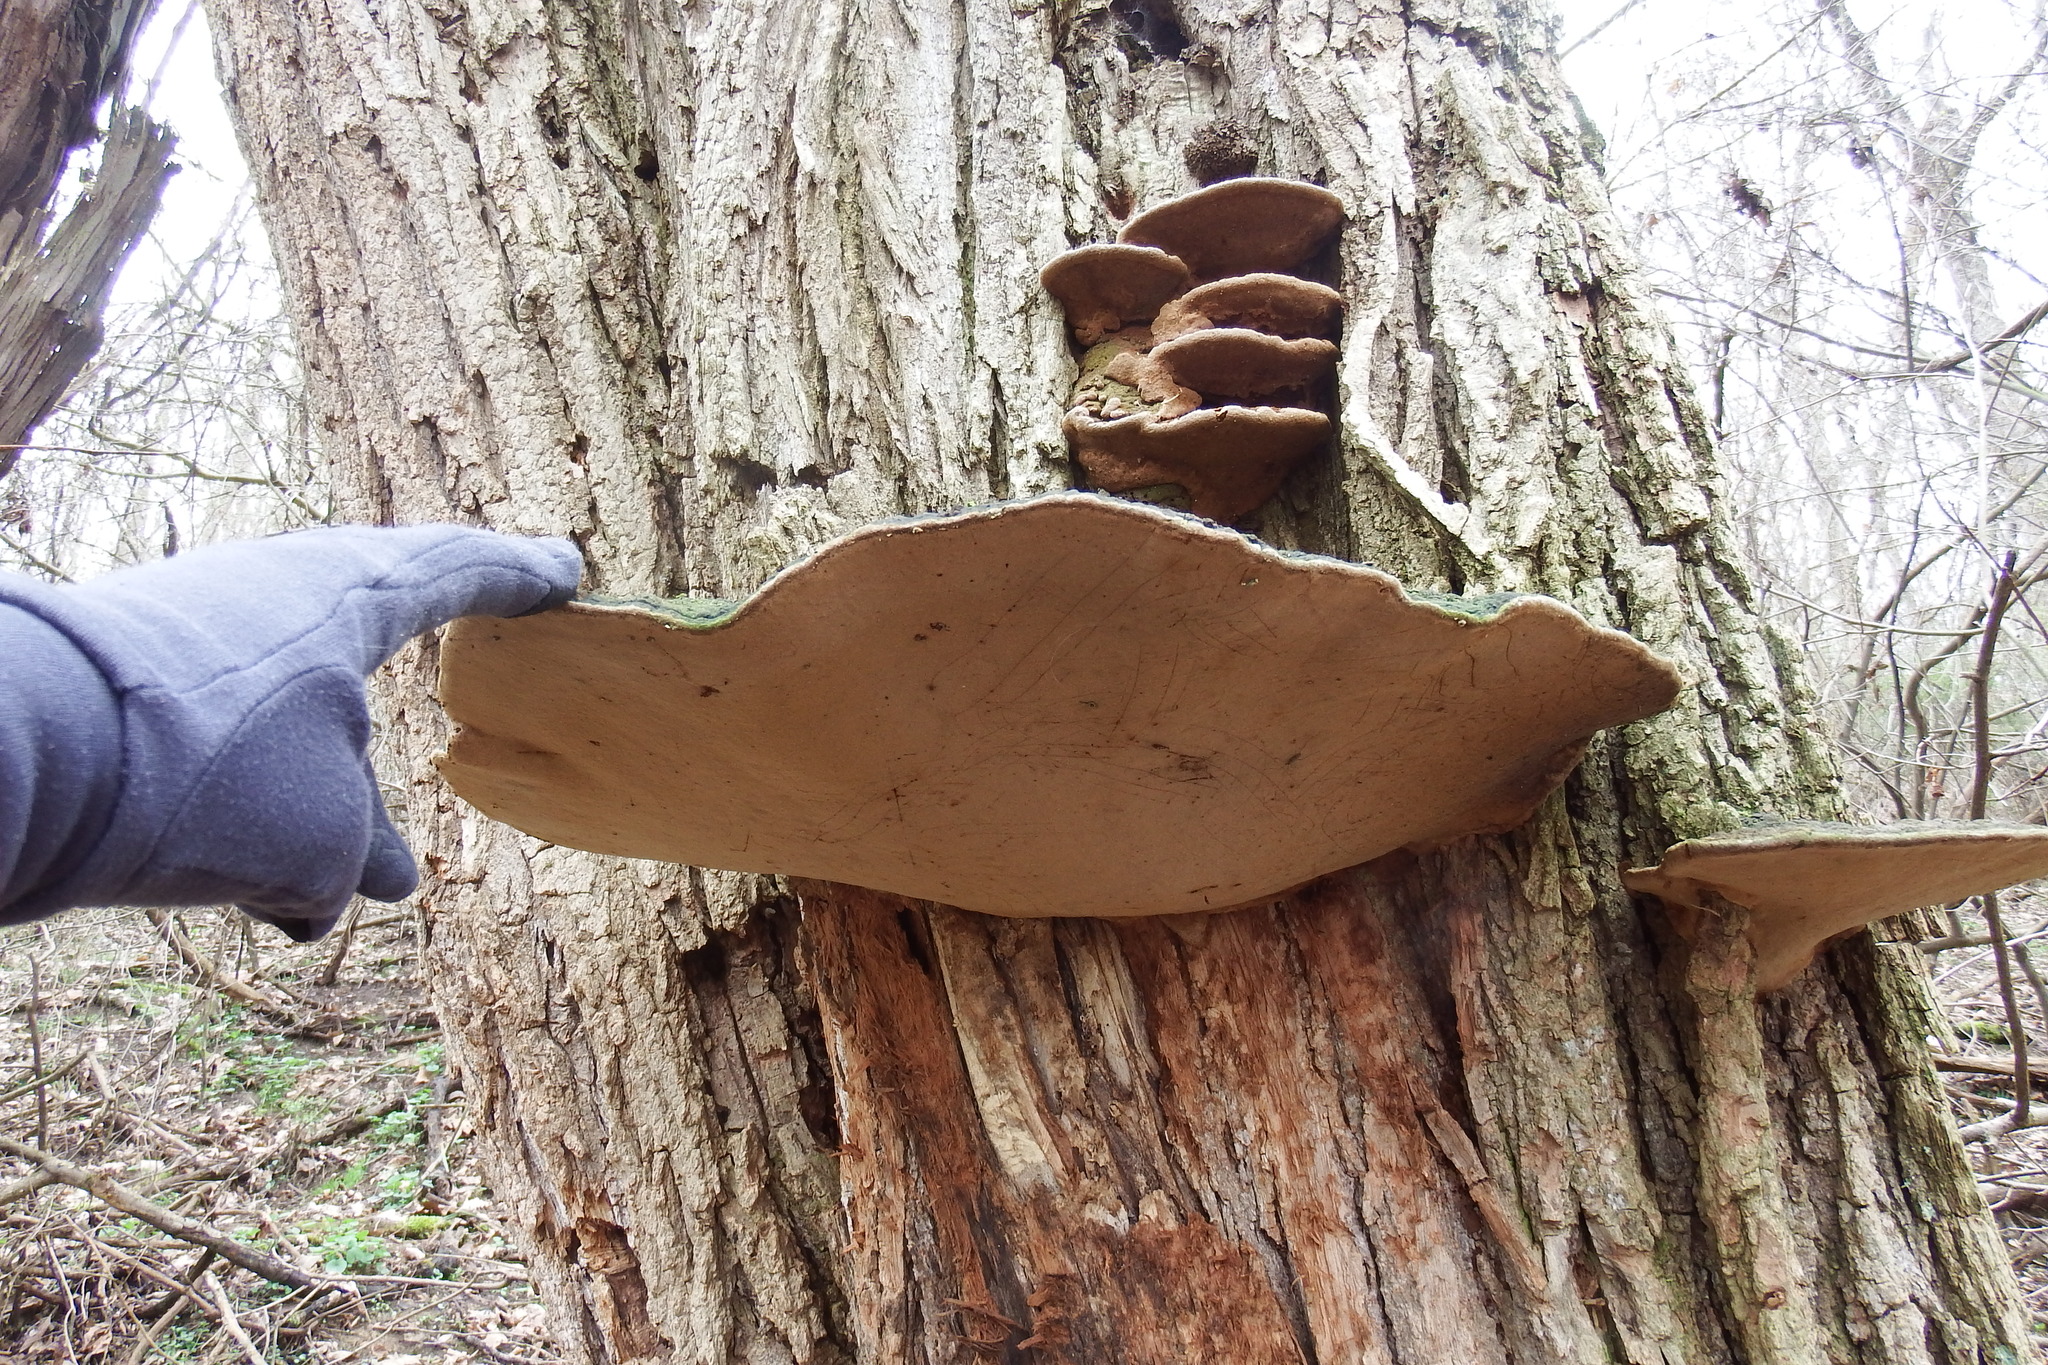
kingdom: Fungi
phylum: Basidiomycota
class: Agaricomycetes
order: Hymenochaetales
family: Hymenochaetaceae
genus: Phellinus
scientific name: Phellinus robiniae
